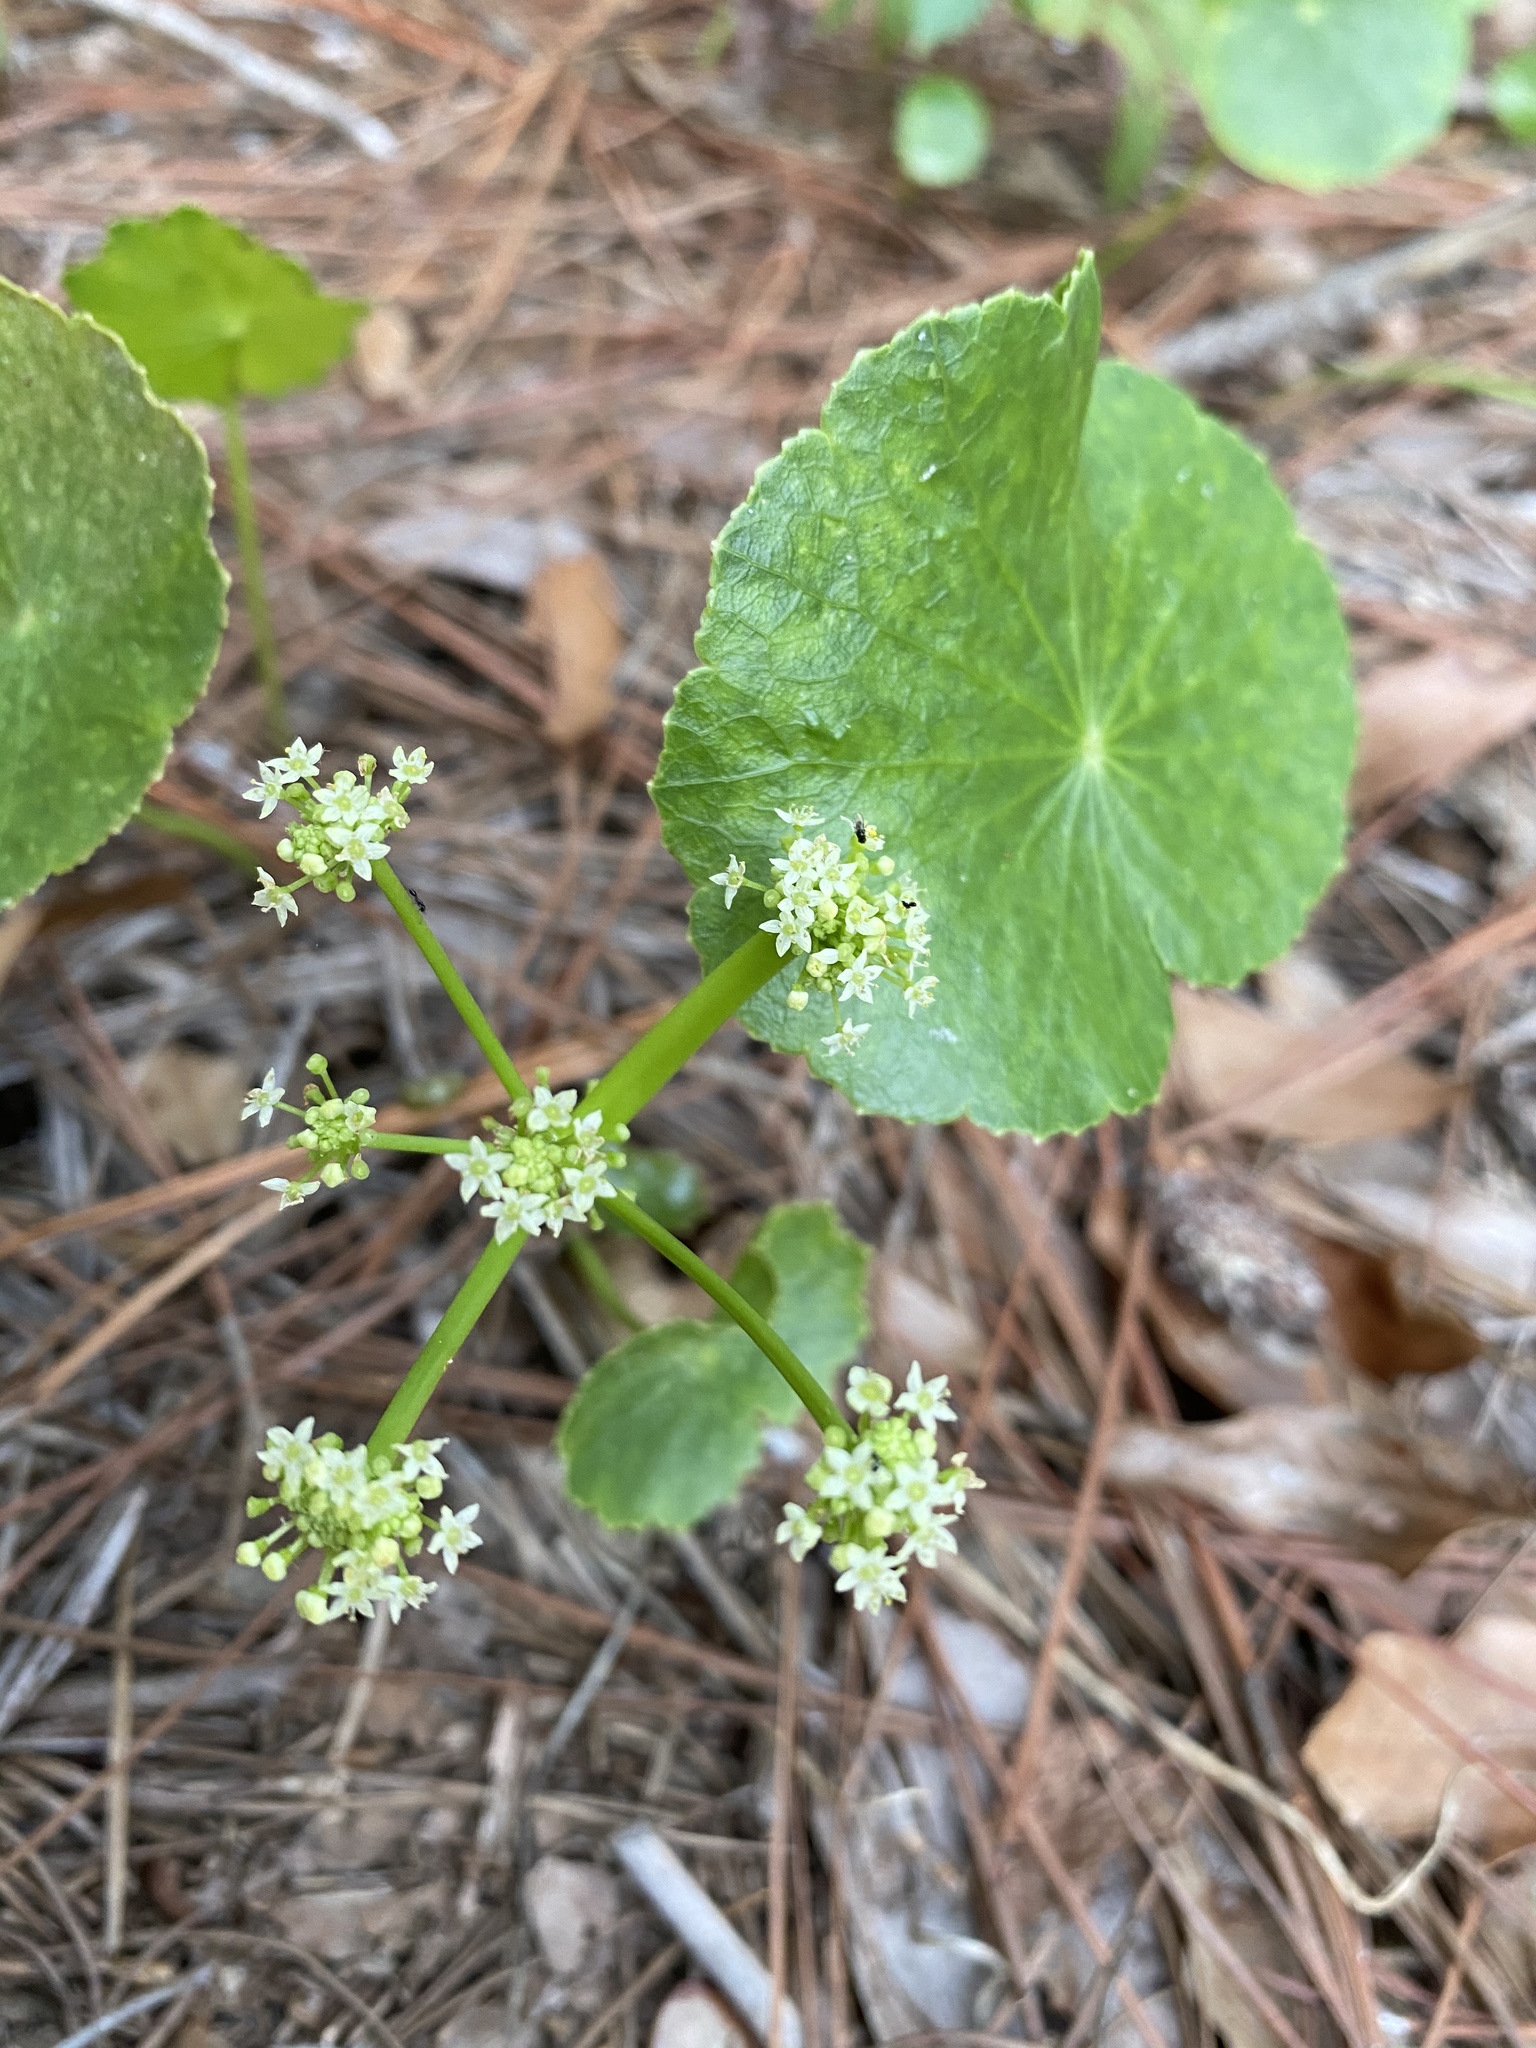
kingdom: Plantae
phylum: Tracheophyta
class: Magnoliopsida
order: Apiales
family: Araliaceae
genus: Hydrocotyle
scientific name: Hydrocotyle bonariensis
